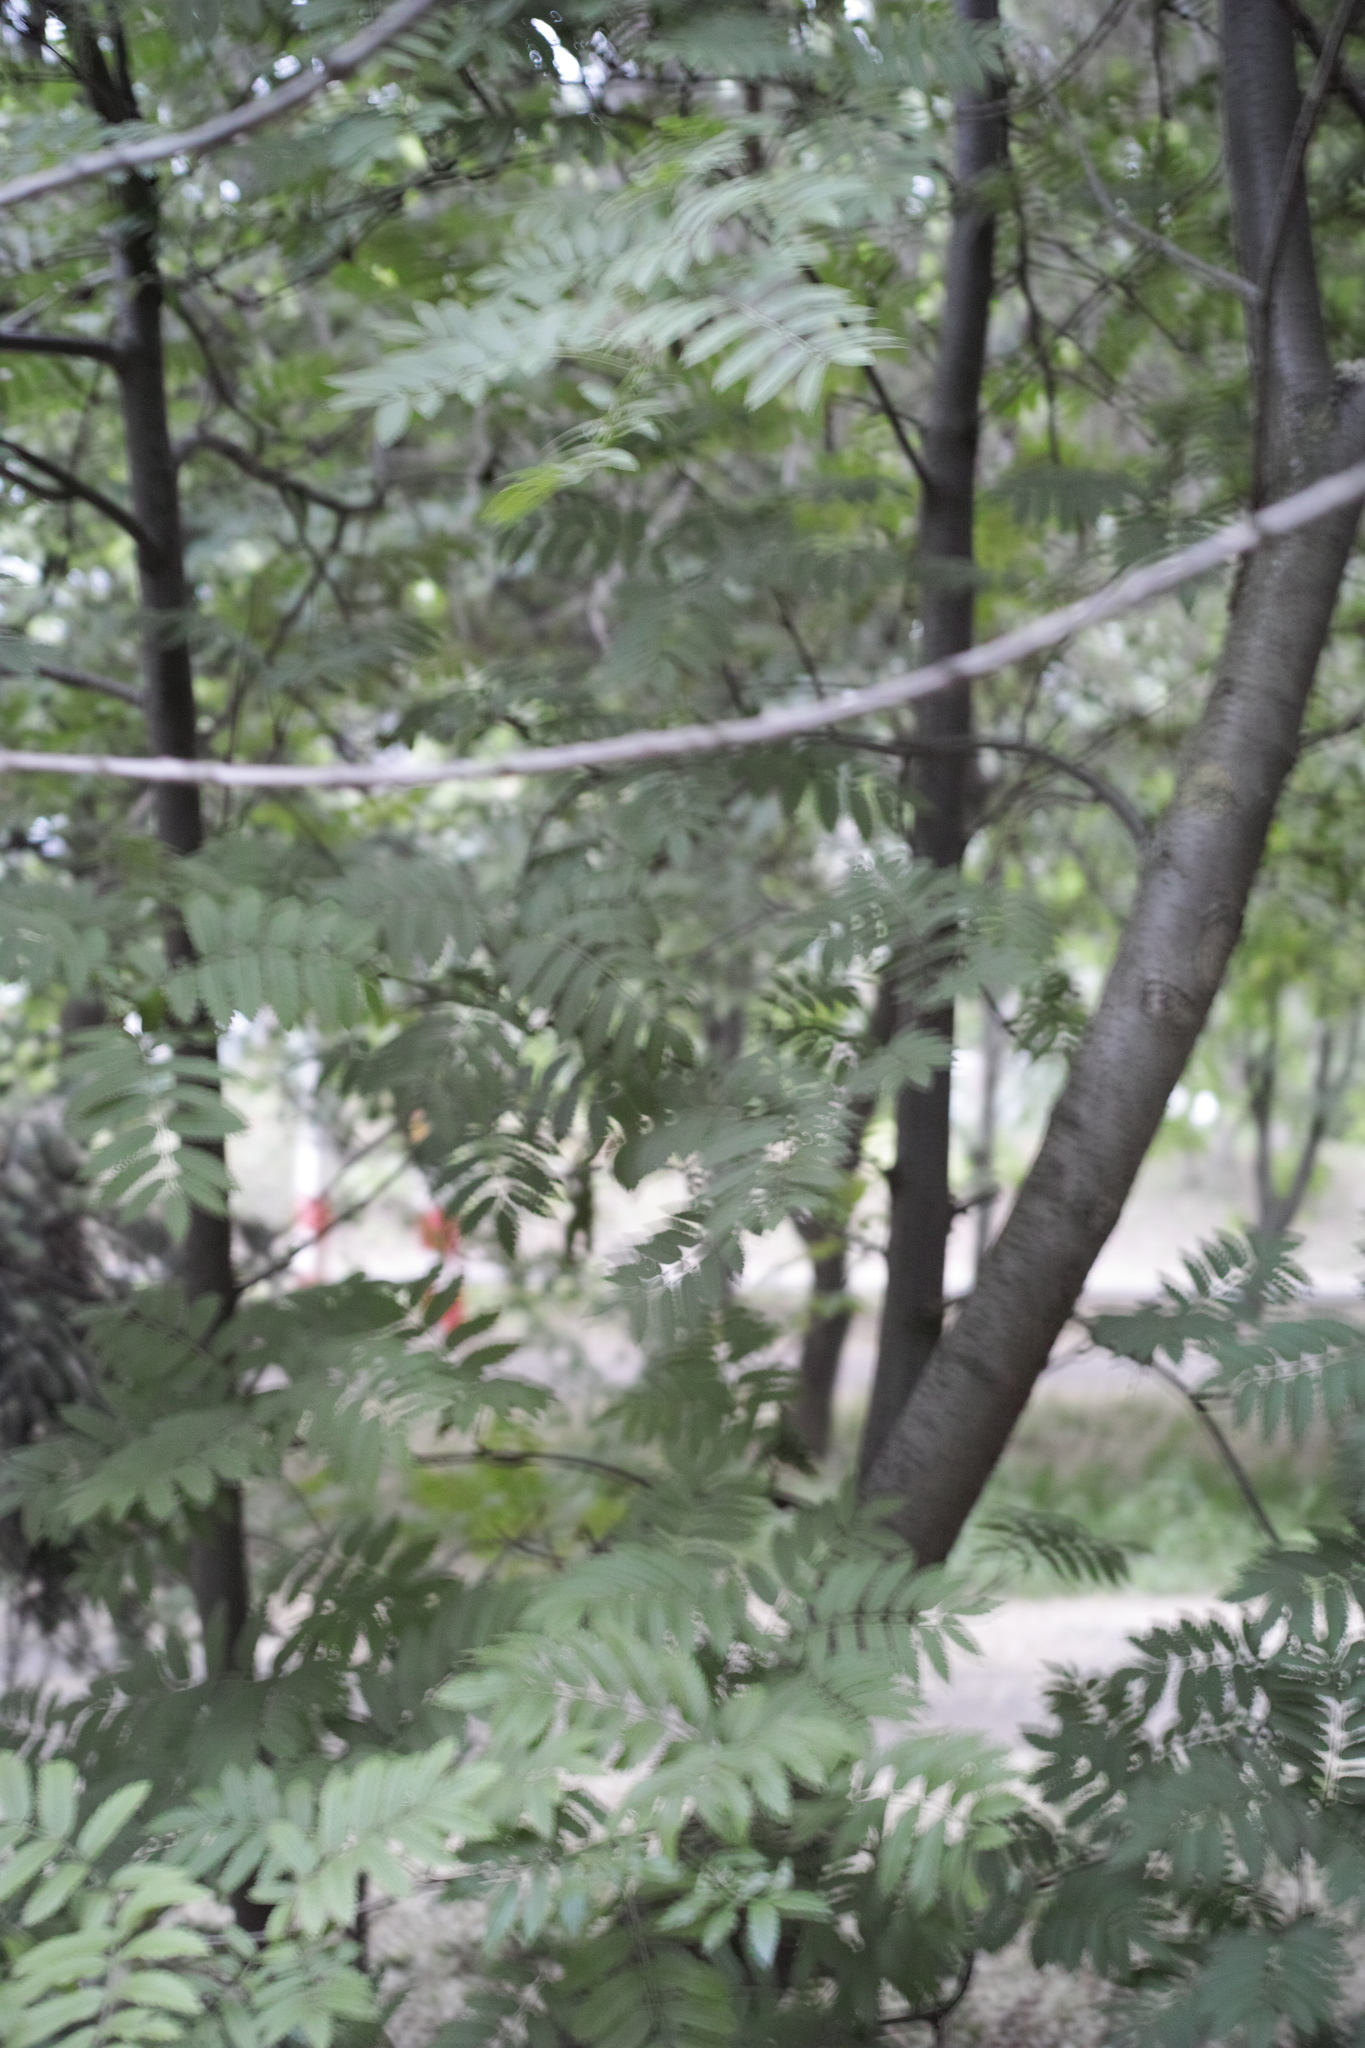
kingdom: Plantae
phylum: Tracheophyta
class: Magnoliopsida
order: Rosales
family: Rosaceae
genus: Sorbus
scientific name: Sorbus aucuparia
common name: Rowan
